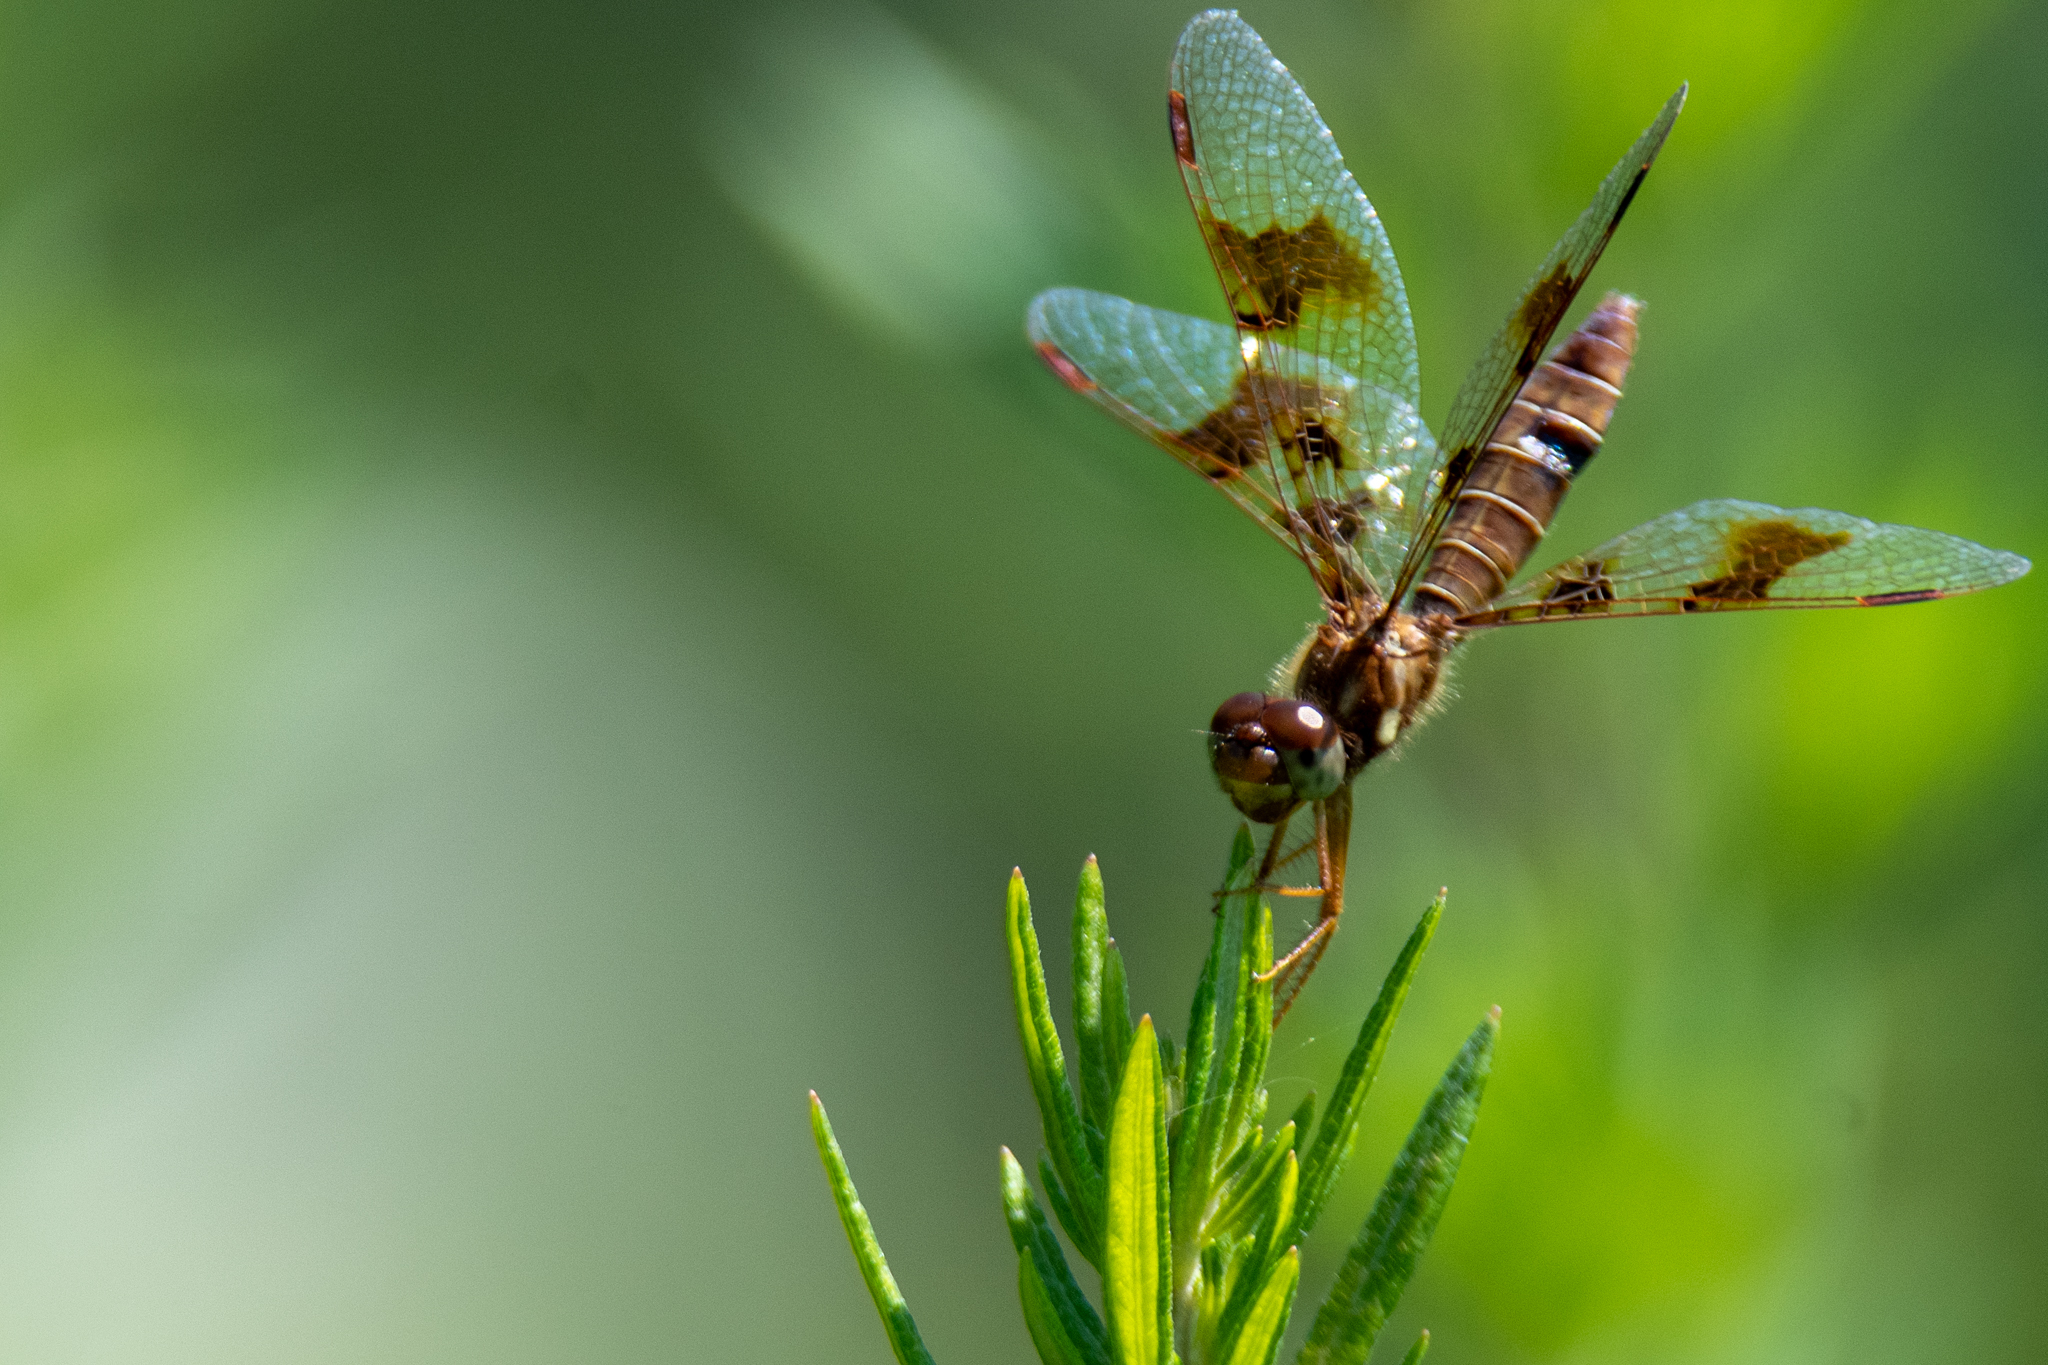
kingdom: Animalia
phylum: Arthropoda
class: Insecta
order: Odonata
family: Libellulidae
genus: Perithemis
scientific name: Perithemis tenera
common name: Eastern amberwing
